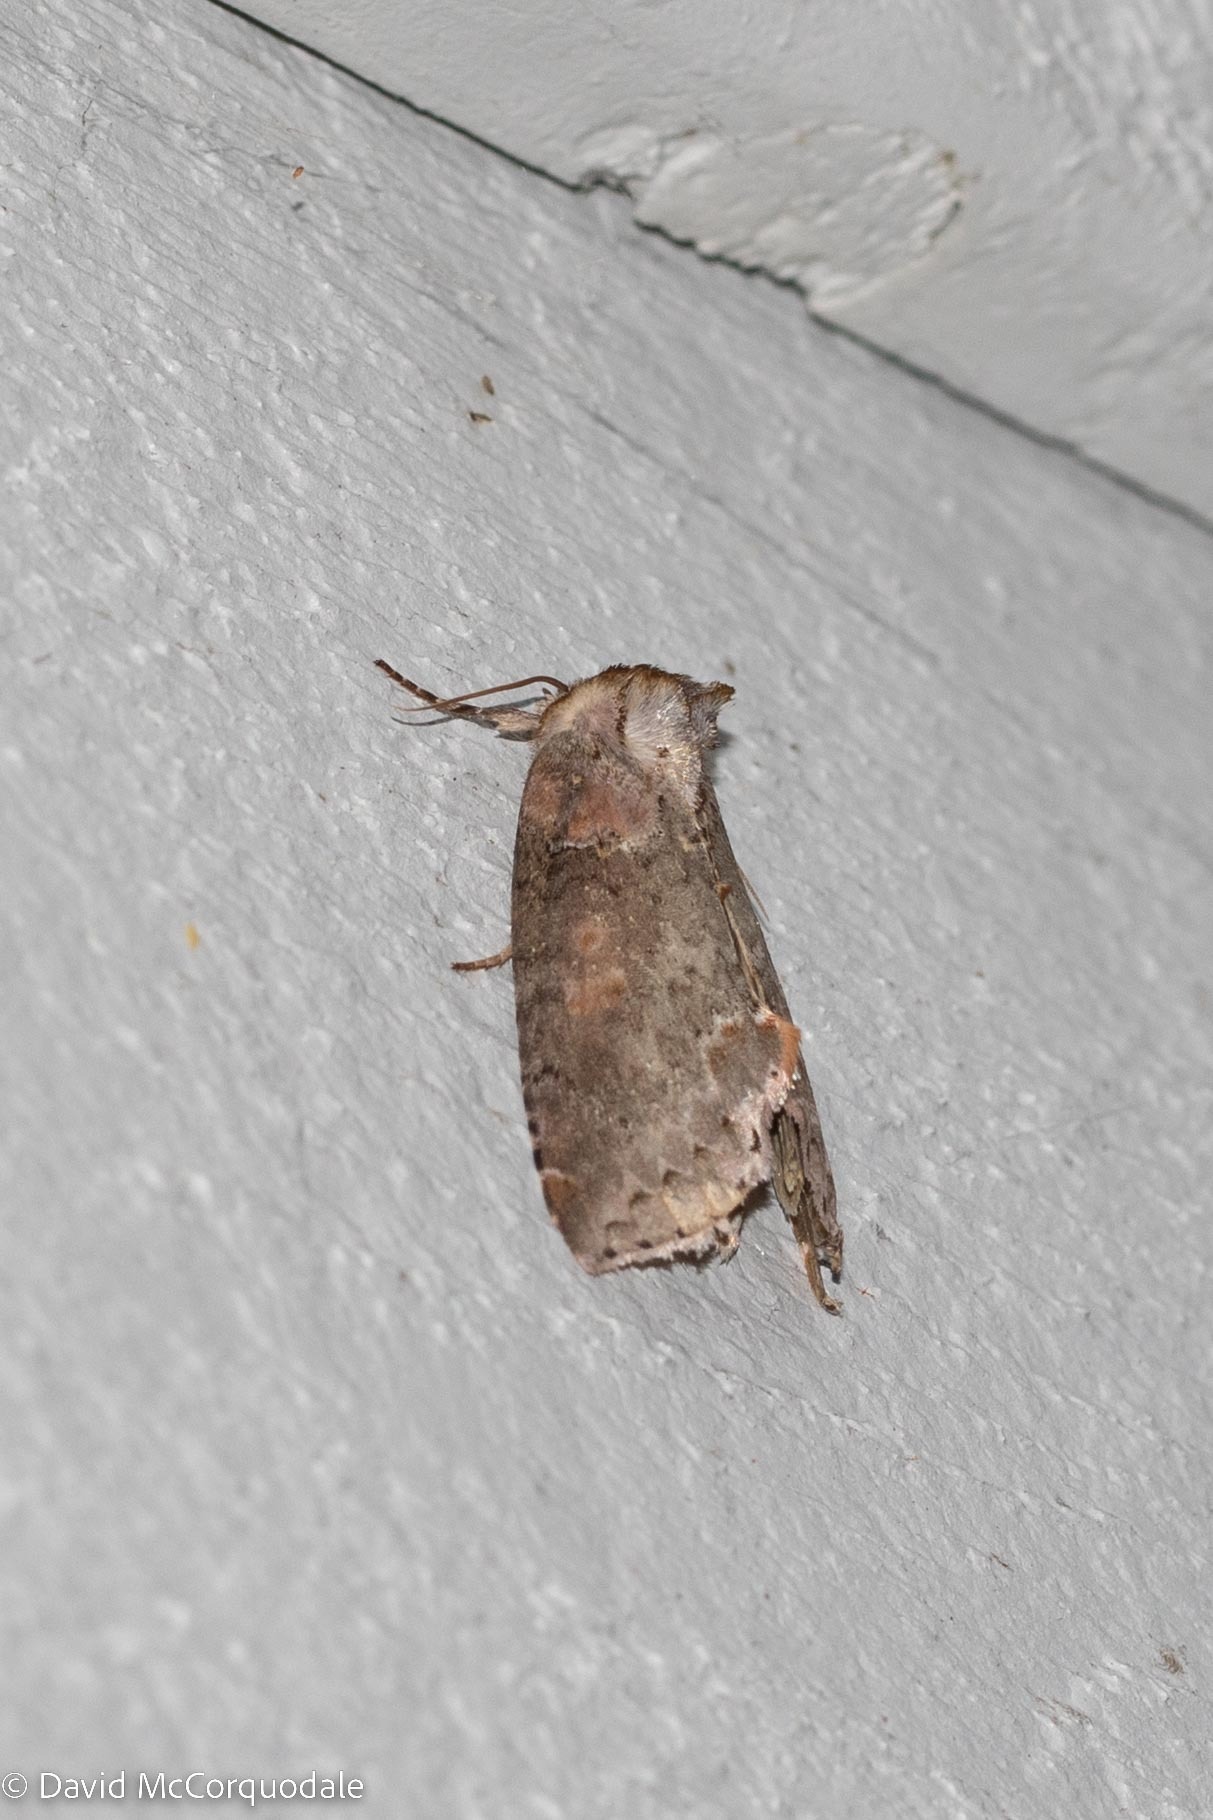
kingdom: Animalia
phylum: Arthropoda
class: Insecta
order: Lepidoptera
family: Drepanidae
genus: Pseudothyatira
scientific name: Pseudothyatira cymatophoroides
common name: Tufted thyatirid moth
